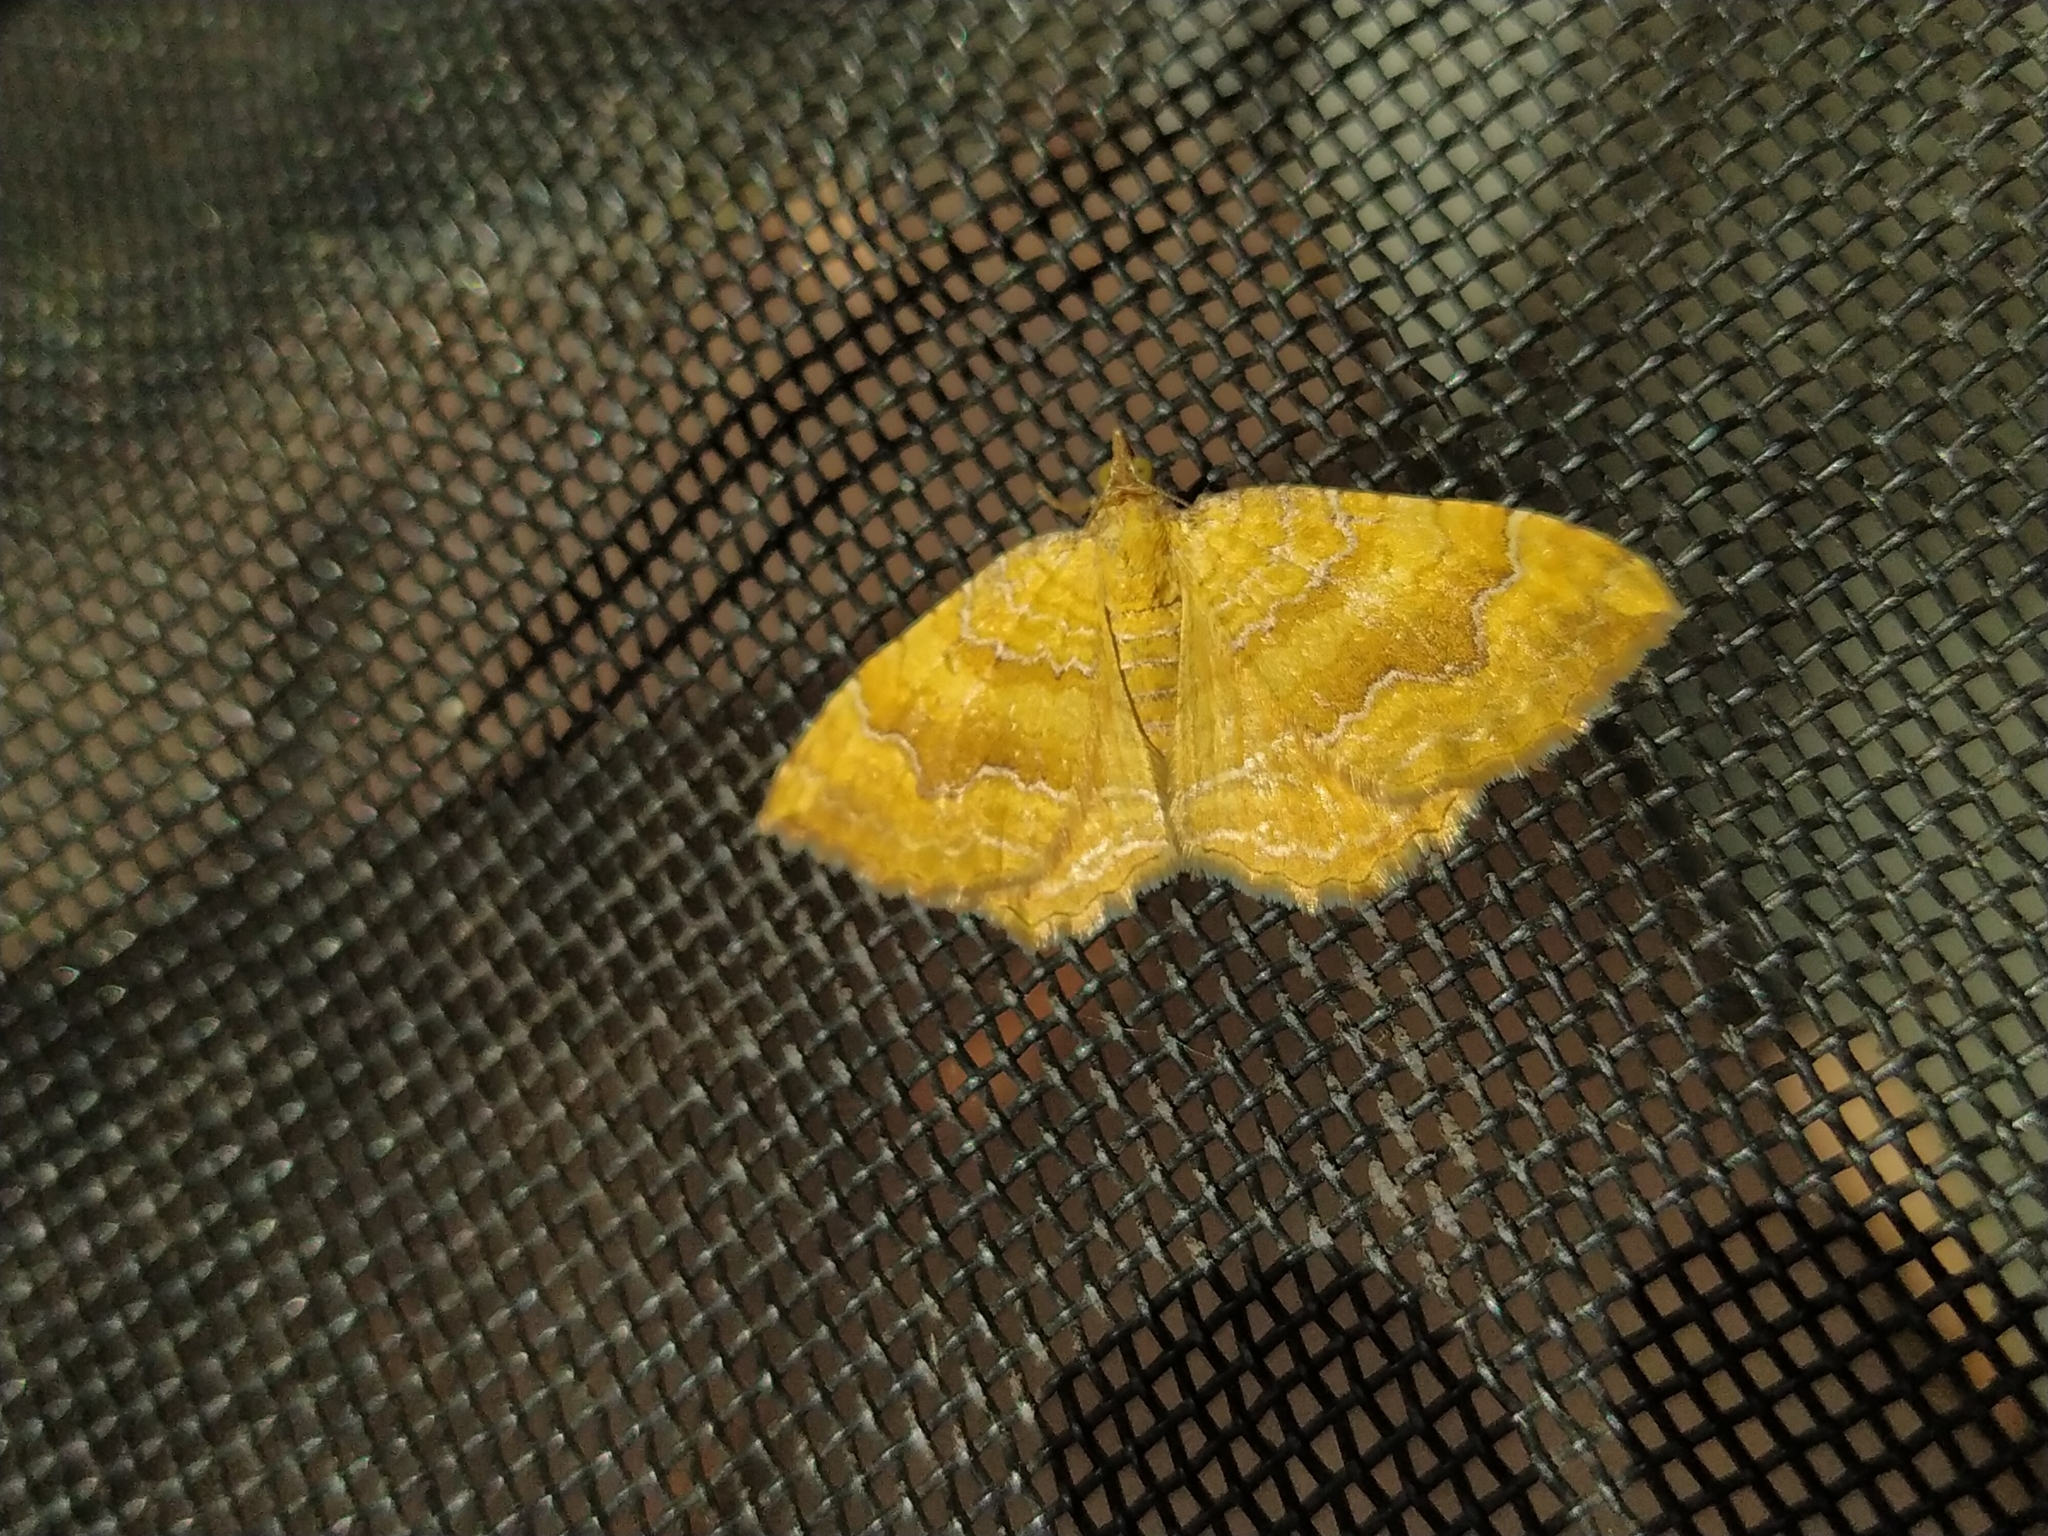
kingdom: Animalia
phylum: Arthropoda
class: Insecta
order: Lepidoptera
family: Geometridae
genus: Camptogramma
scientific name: Camptogramma bilineata
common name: Yellow shell
